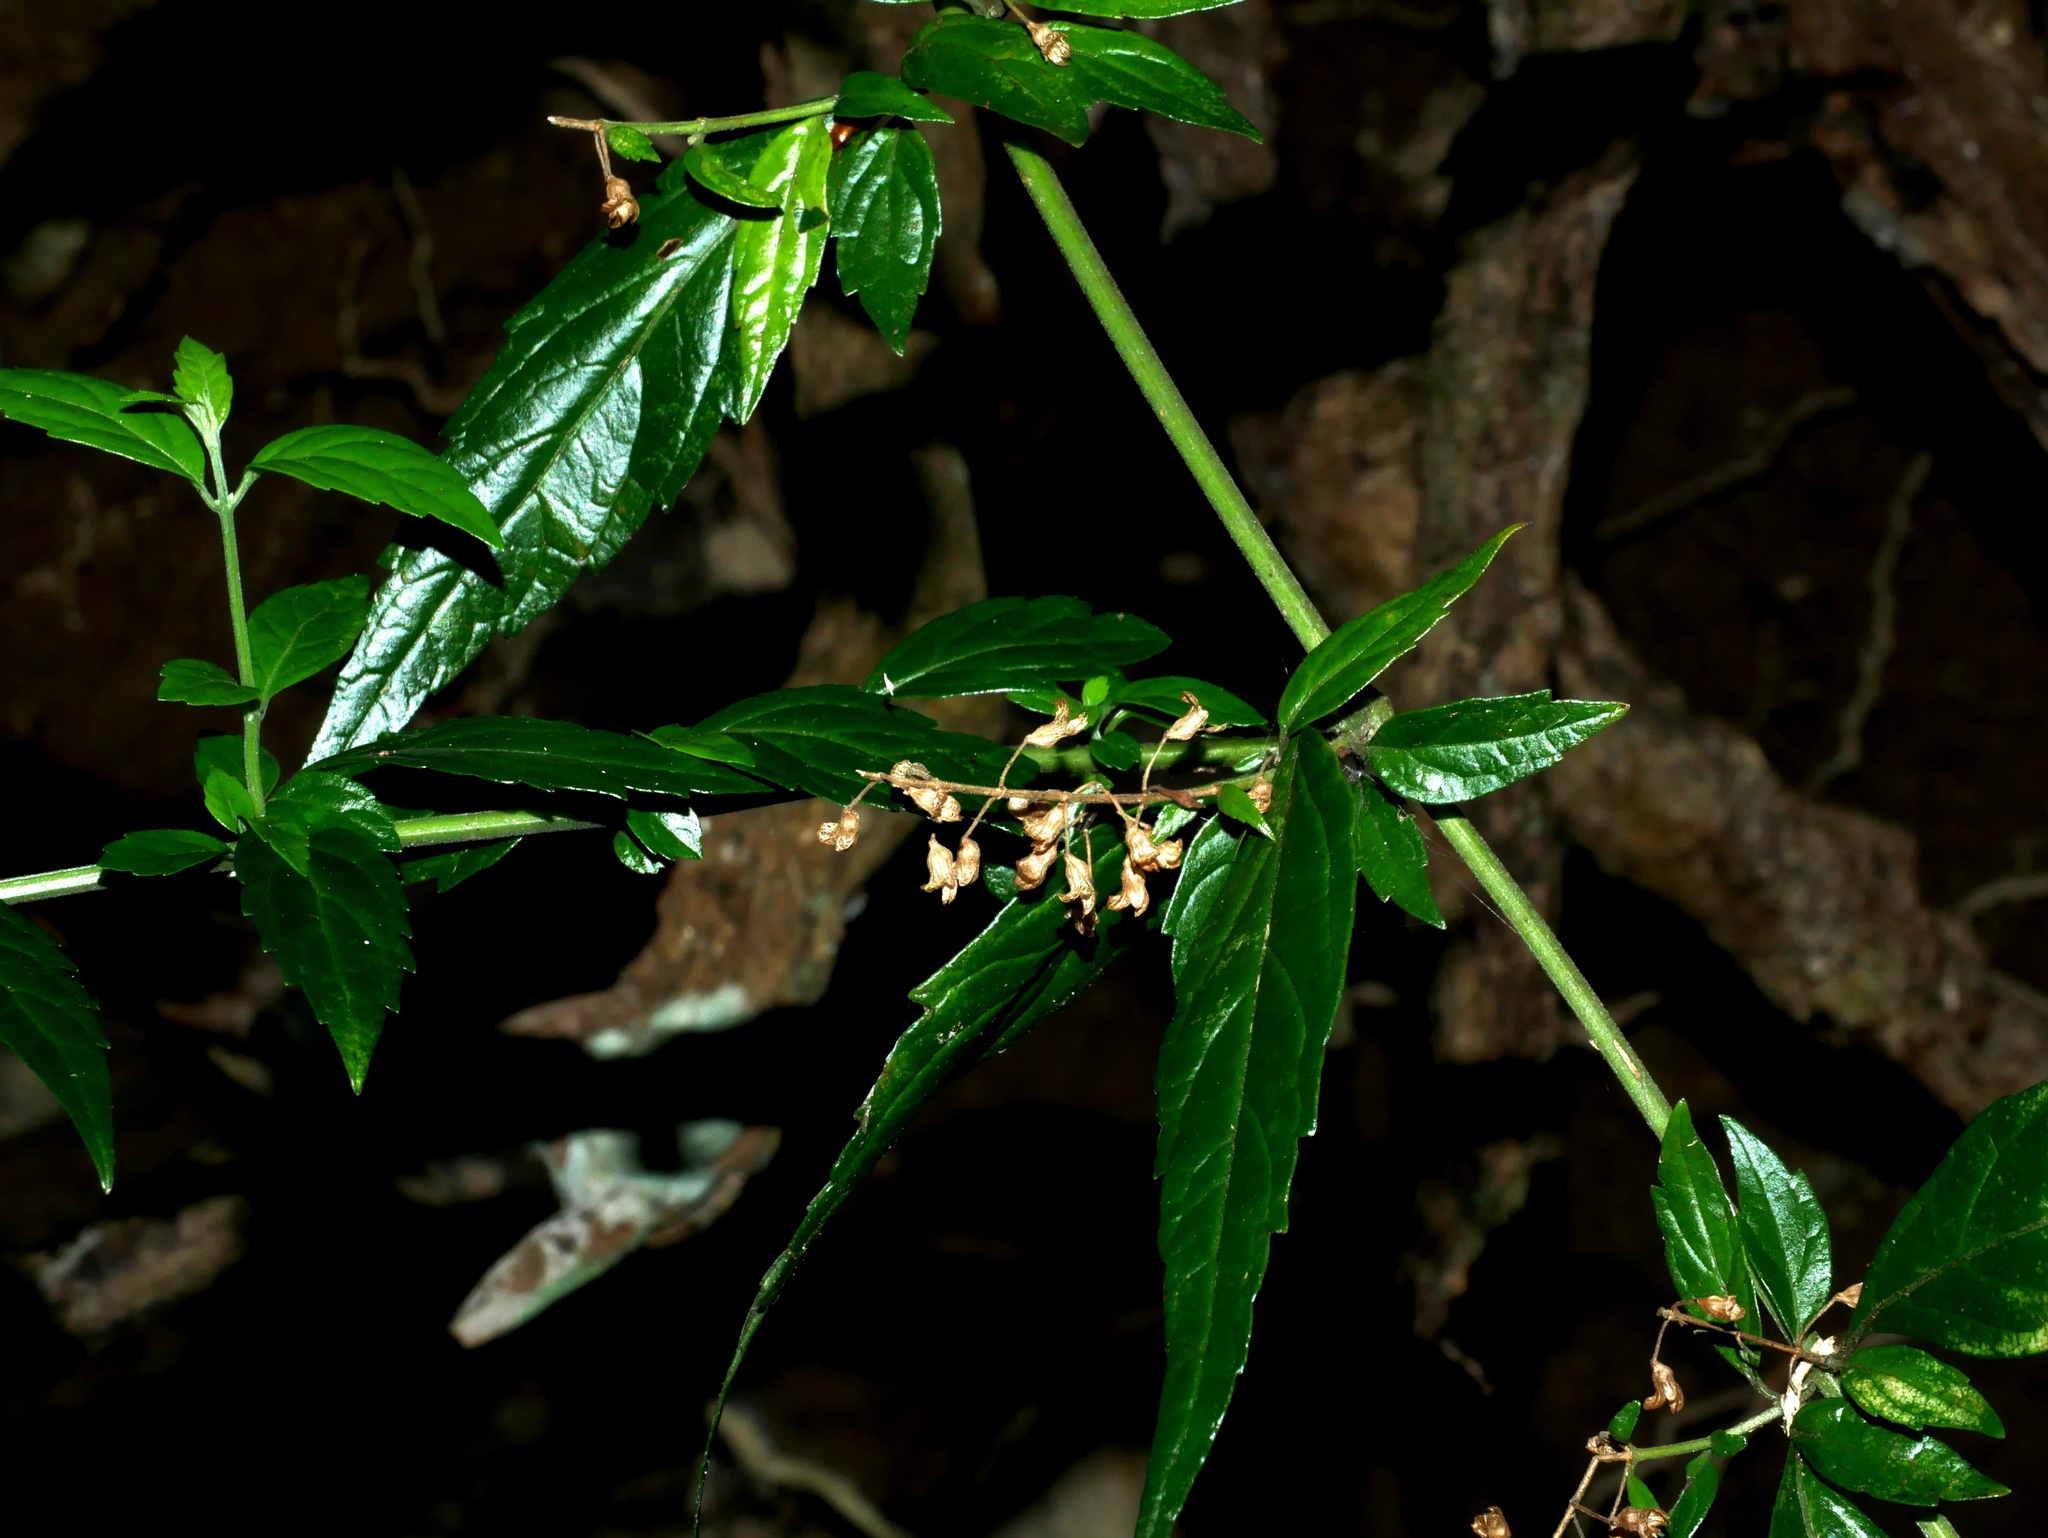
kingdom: Plantae
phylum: Tracheophyta
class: Magnoliopsida
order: Lamiales
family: Lamiaceae
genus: Teucrium
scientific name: Teucrium bidentatum
